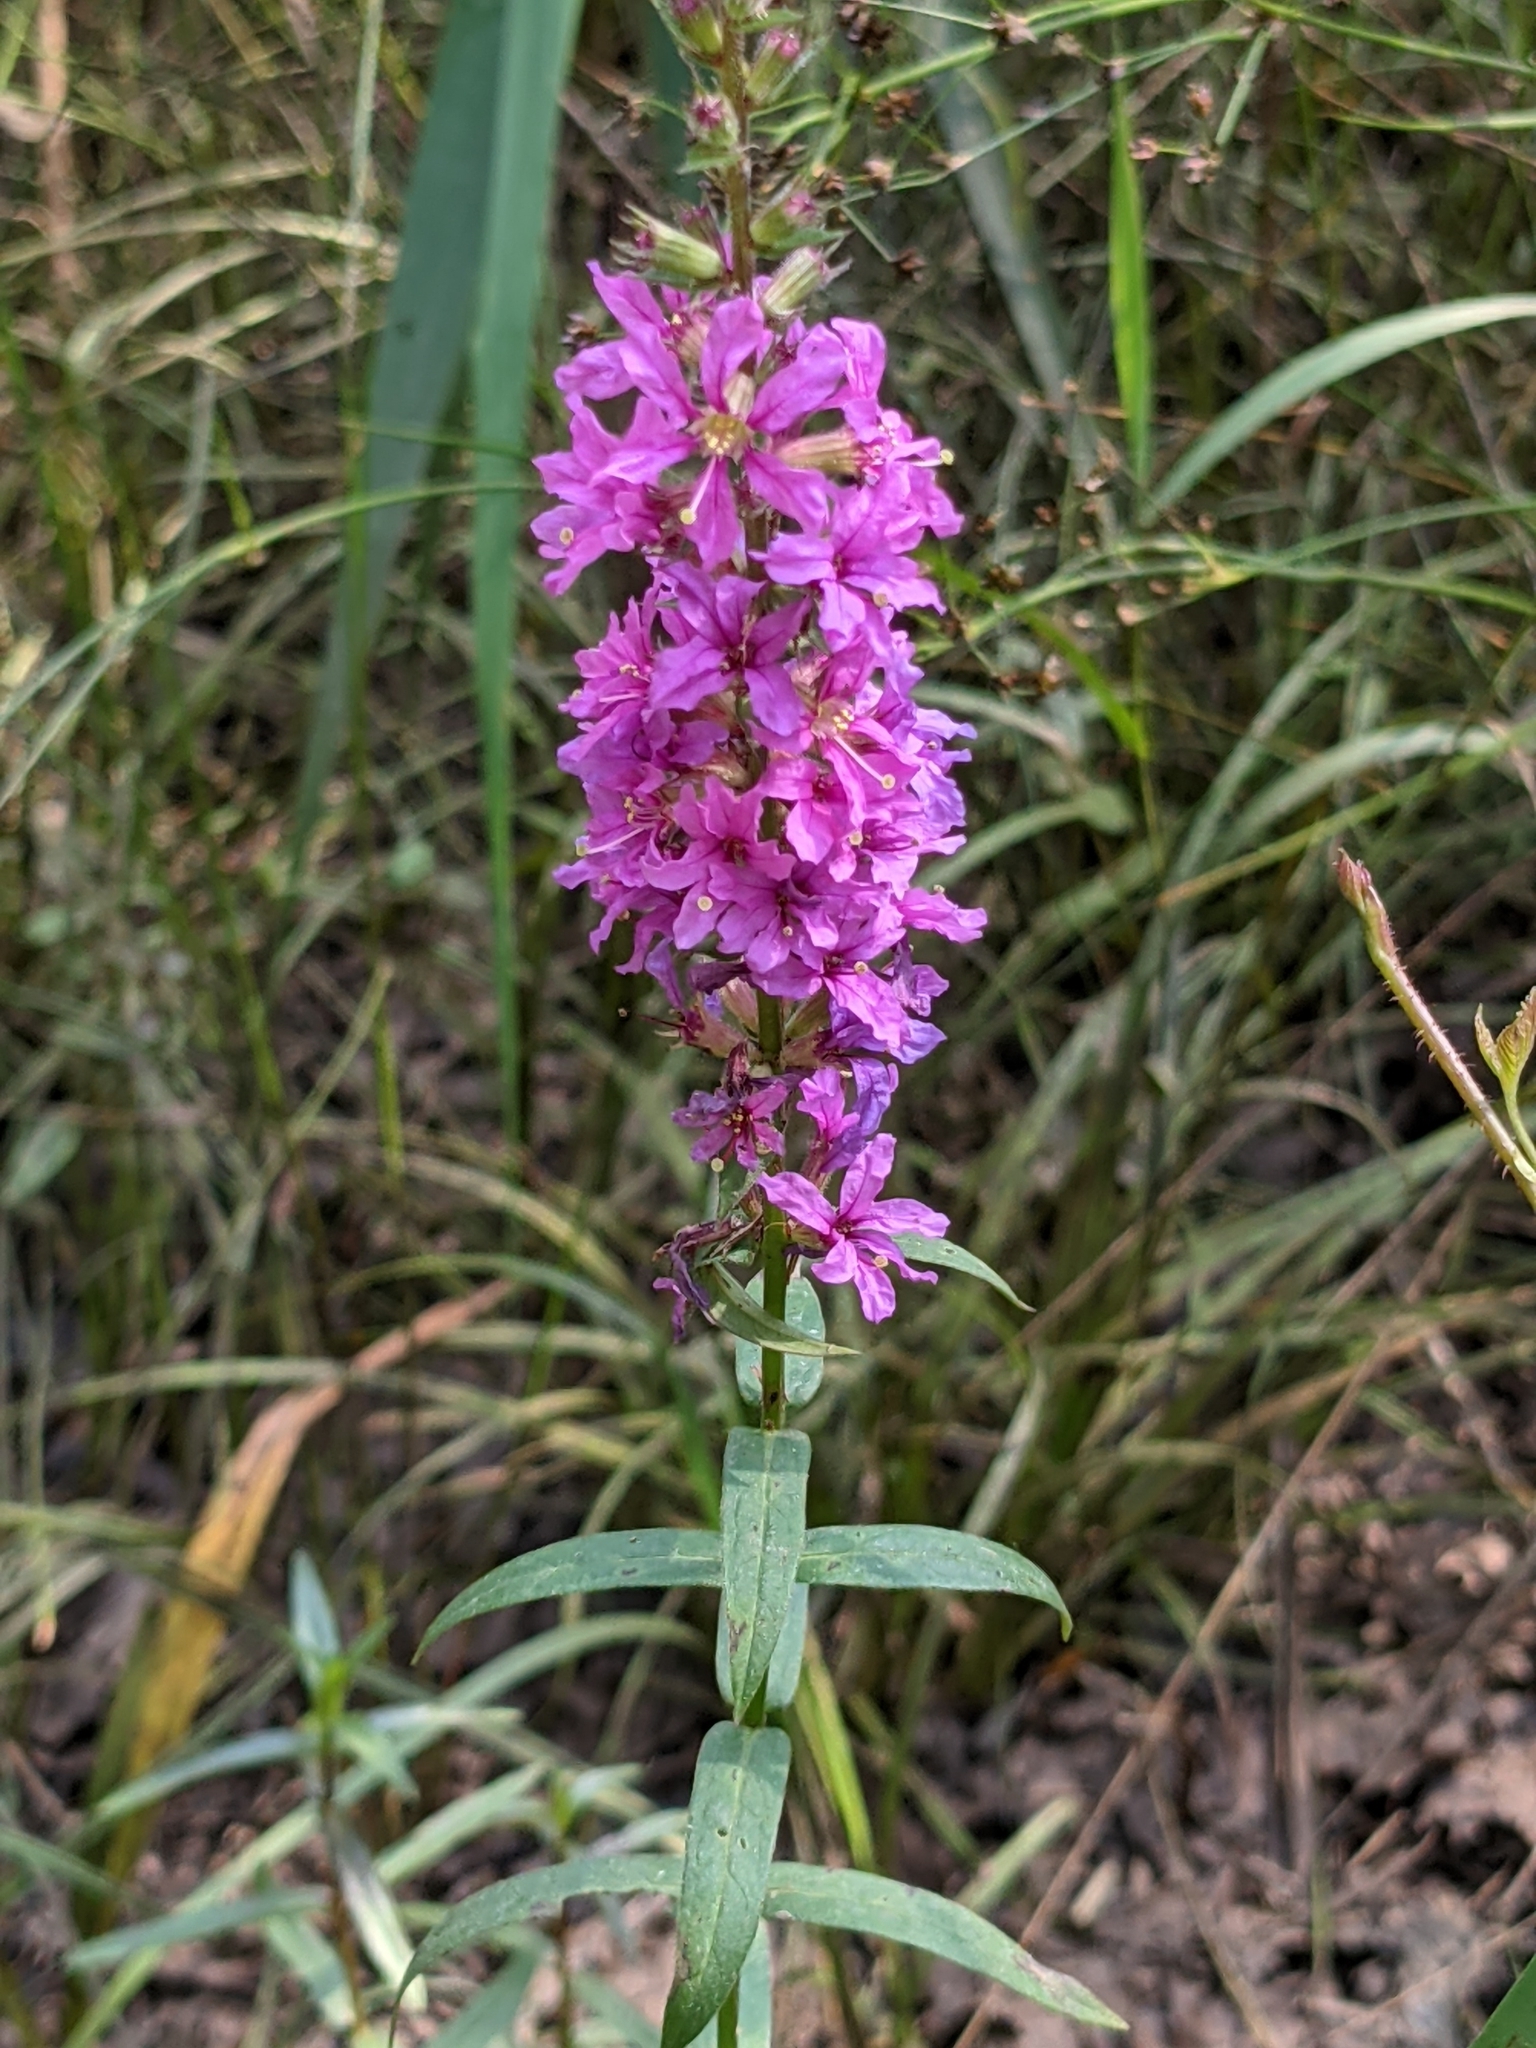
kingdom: Plantae
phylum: Tracheophyta
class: Magnoliopsida
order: Myrtales
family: Lythraceae
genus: Lythrum
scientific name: Lythrum salicaria
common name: Purple loosestrife
